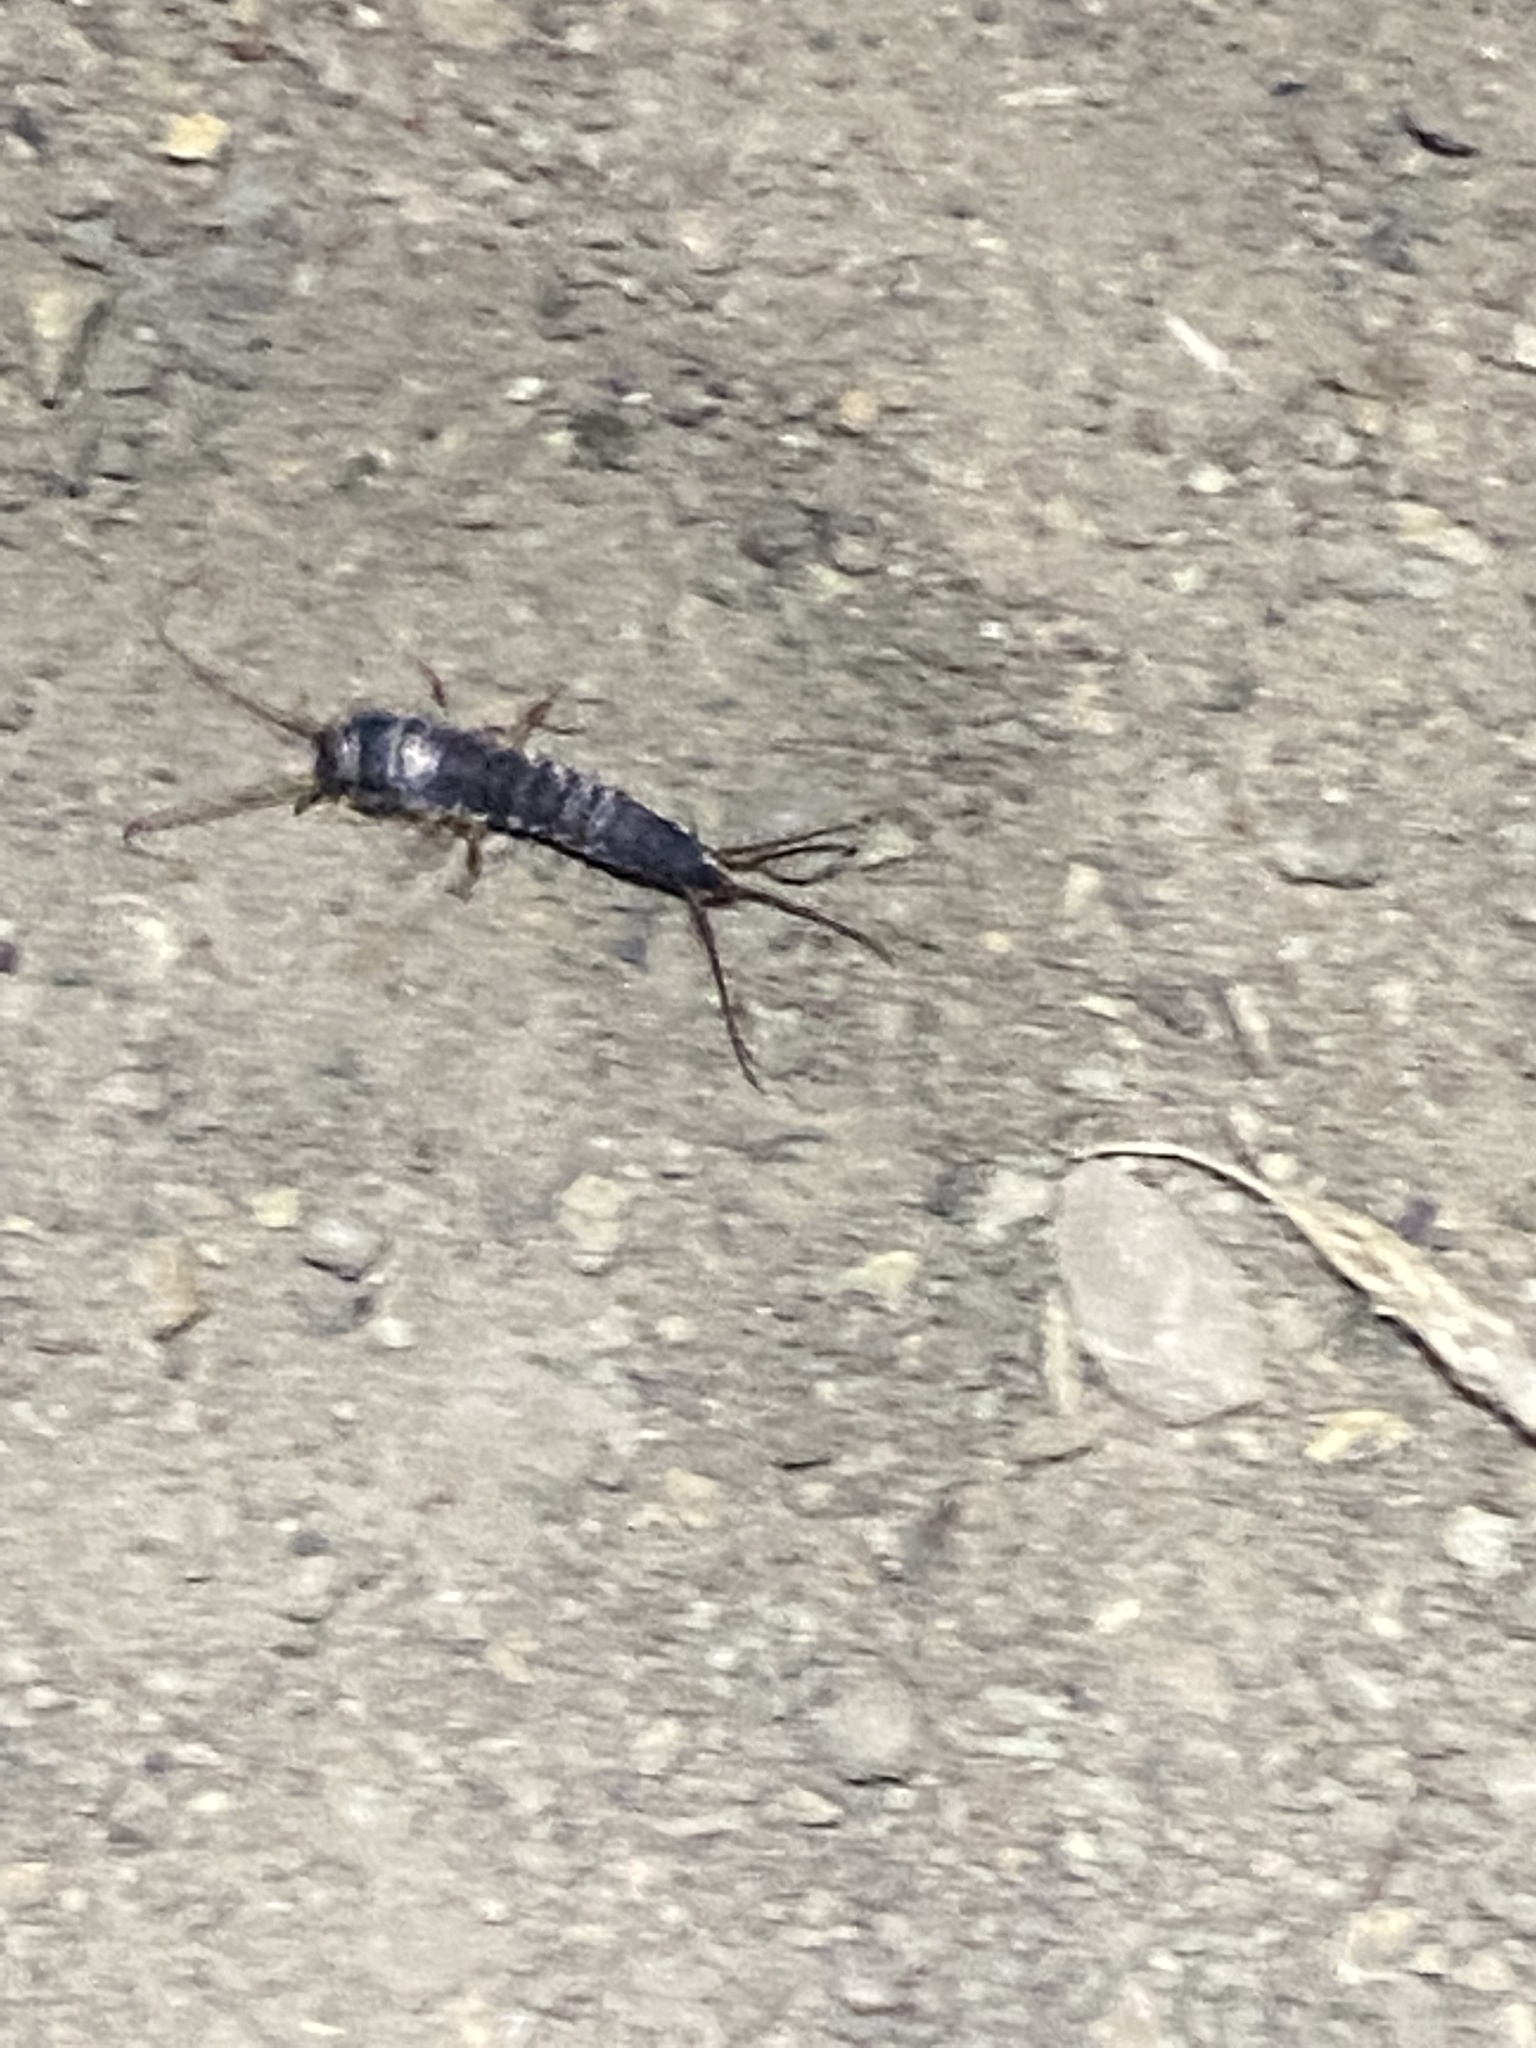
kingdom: Animalia
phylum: Arthropoda
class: Insecta
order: Zygentoma
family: Lepismatidae
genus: Allacrotelsa
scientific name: Allacrotelsa spinulata
